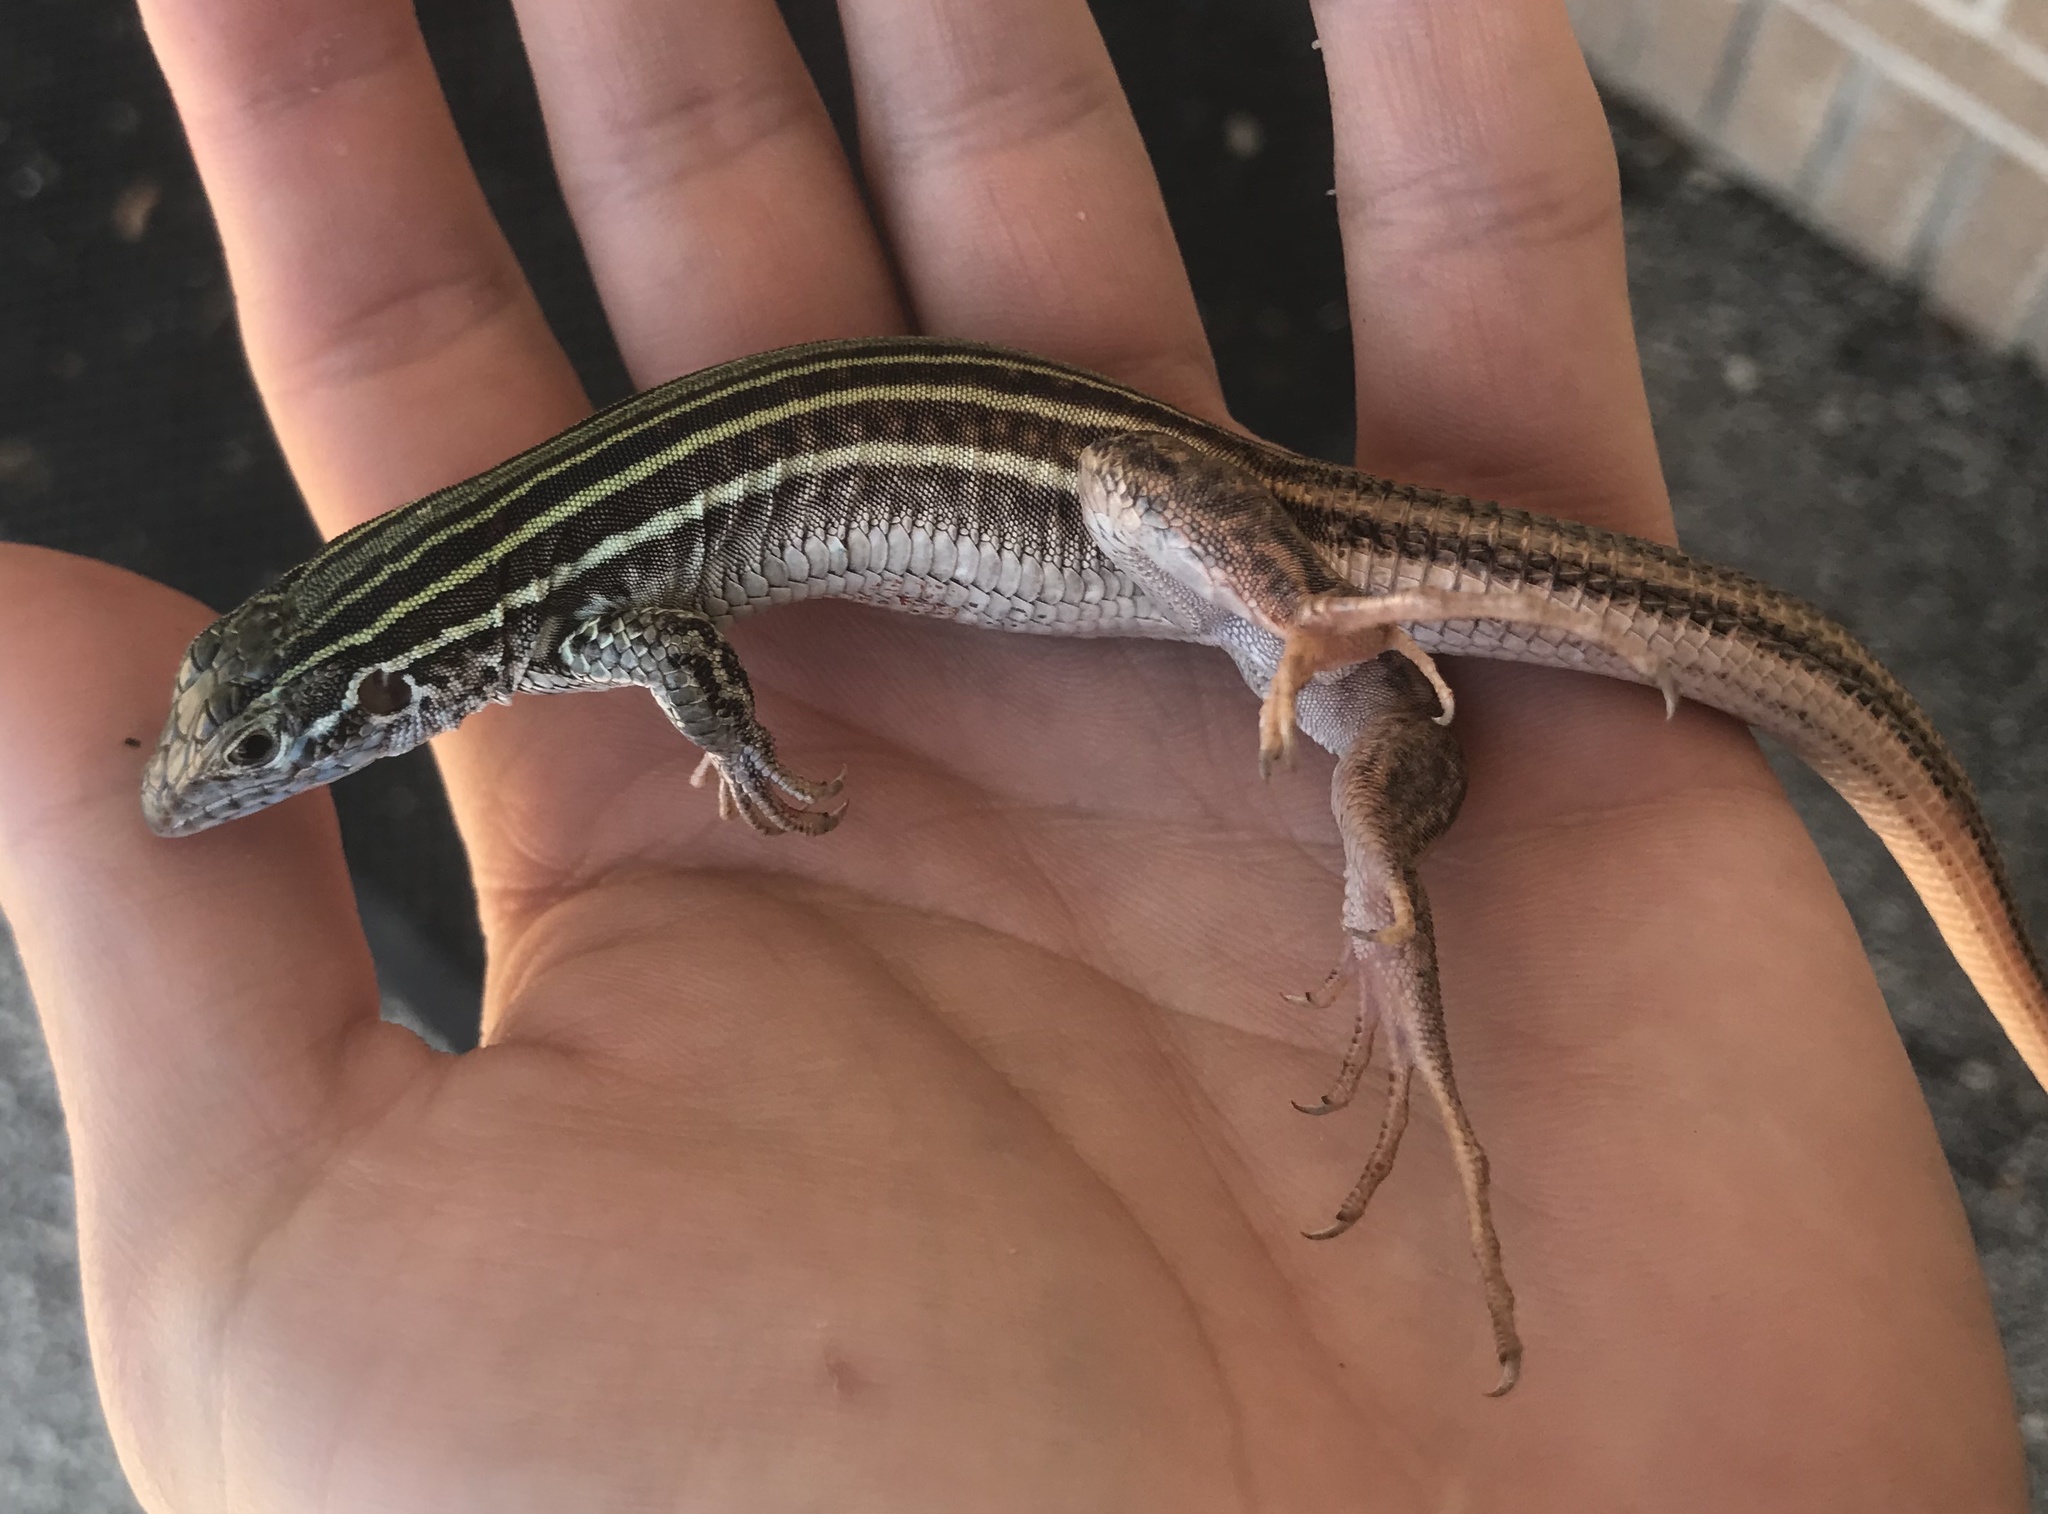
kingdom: Animalia
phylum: Chordata
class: Squamata
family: Teiidae
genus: Aspidoscelis
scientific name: Aspidoscelis gularis
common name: Eastern spotted whiptail
